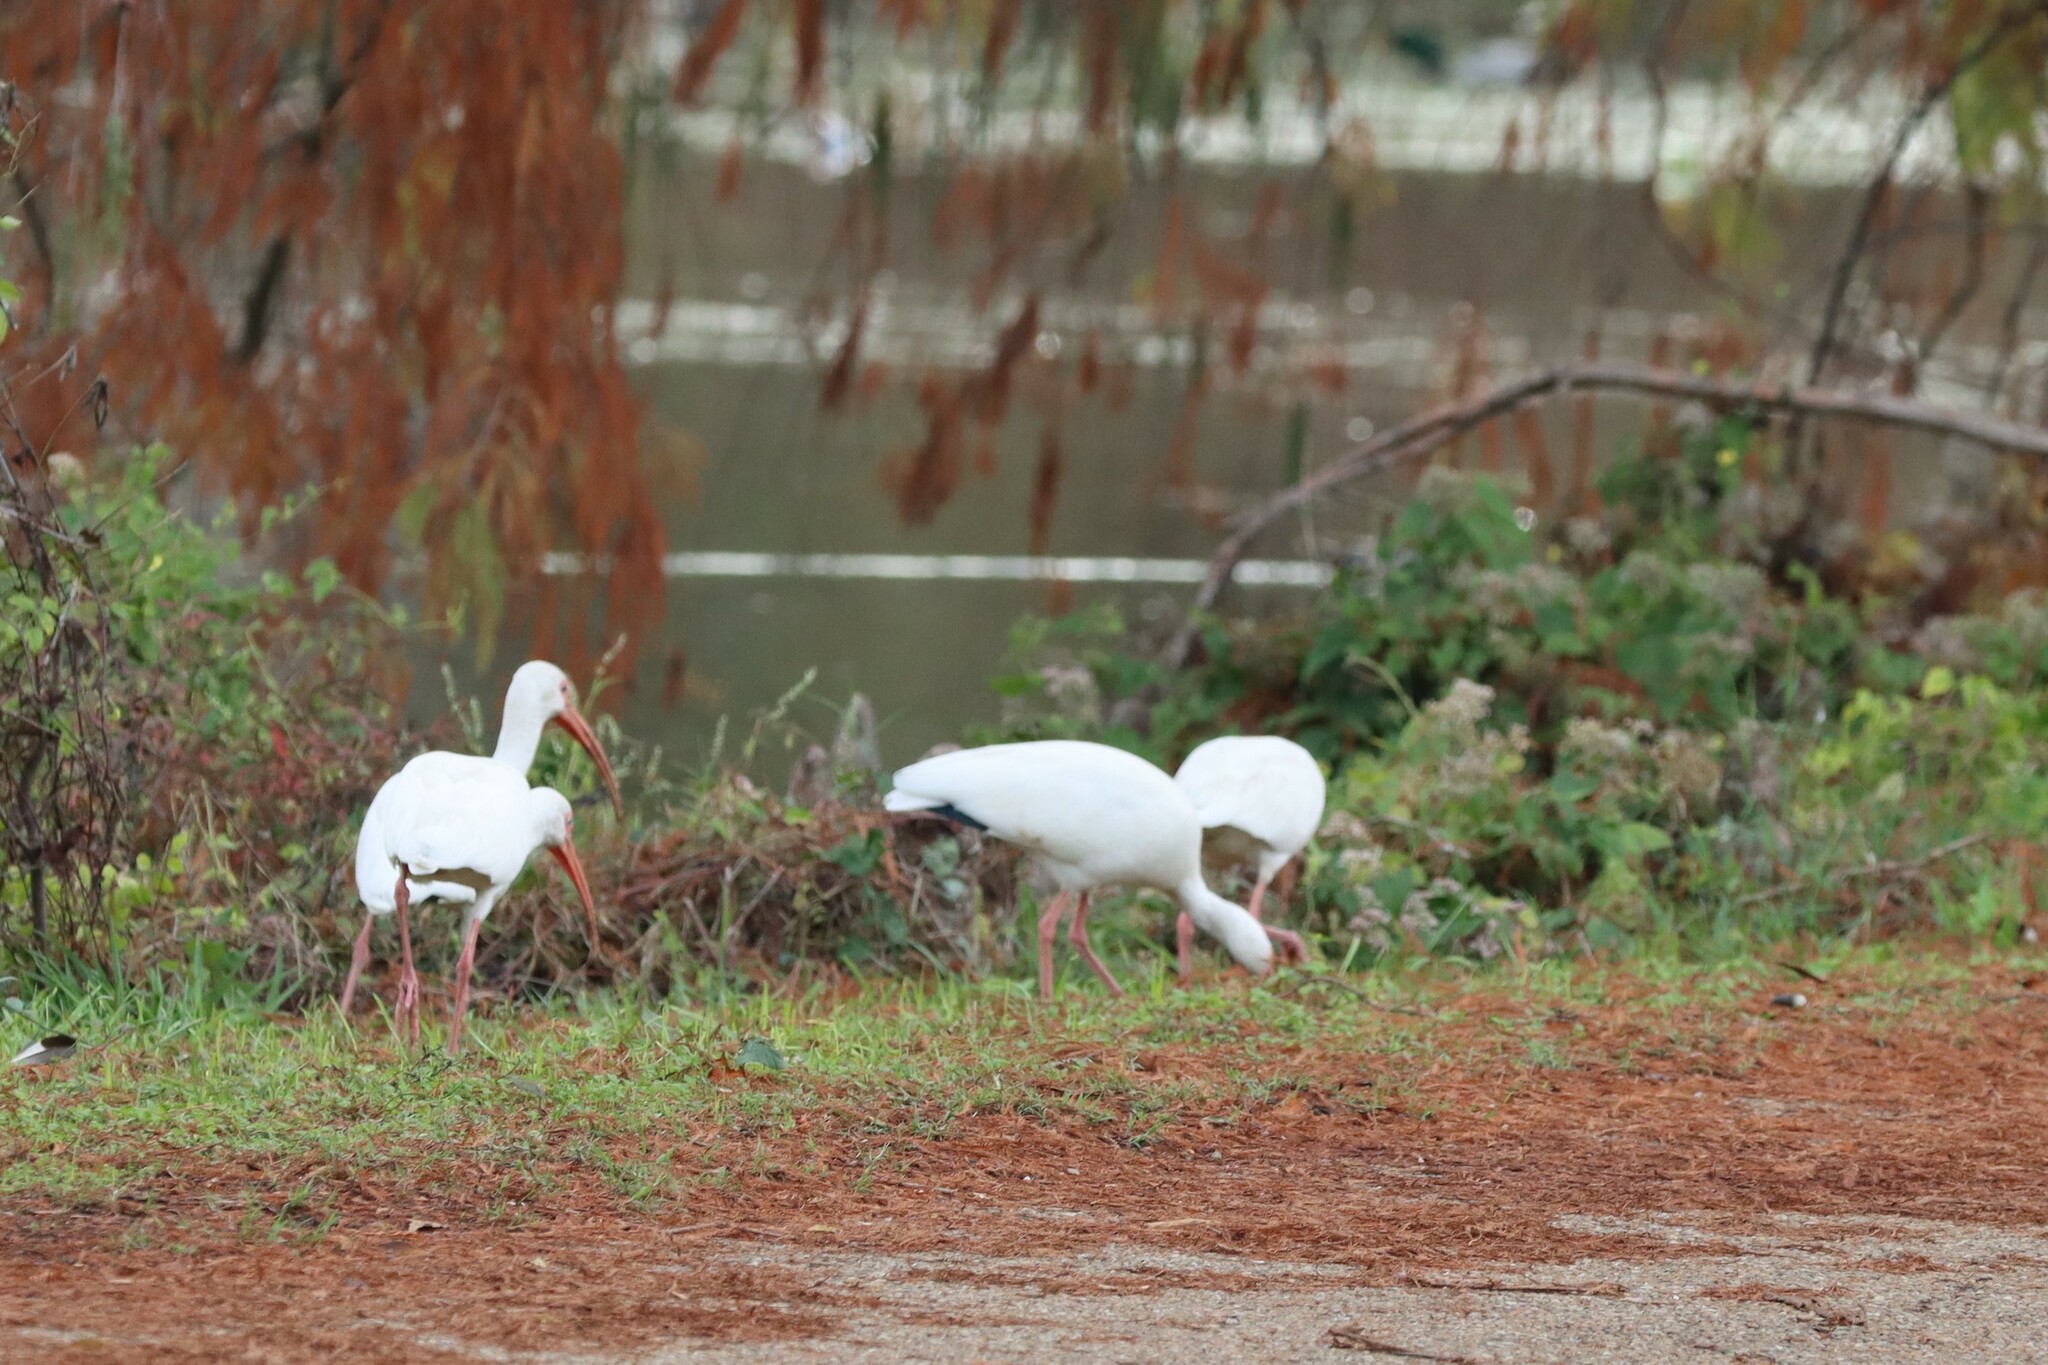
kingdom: Animalia
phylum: Chordata
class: Aves
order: Pelecaniformes
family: Threskiornithidae
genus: Eudocimus
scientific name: Eudocimus albus
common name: White ibis
